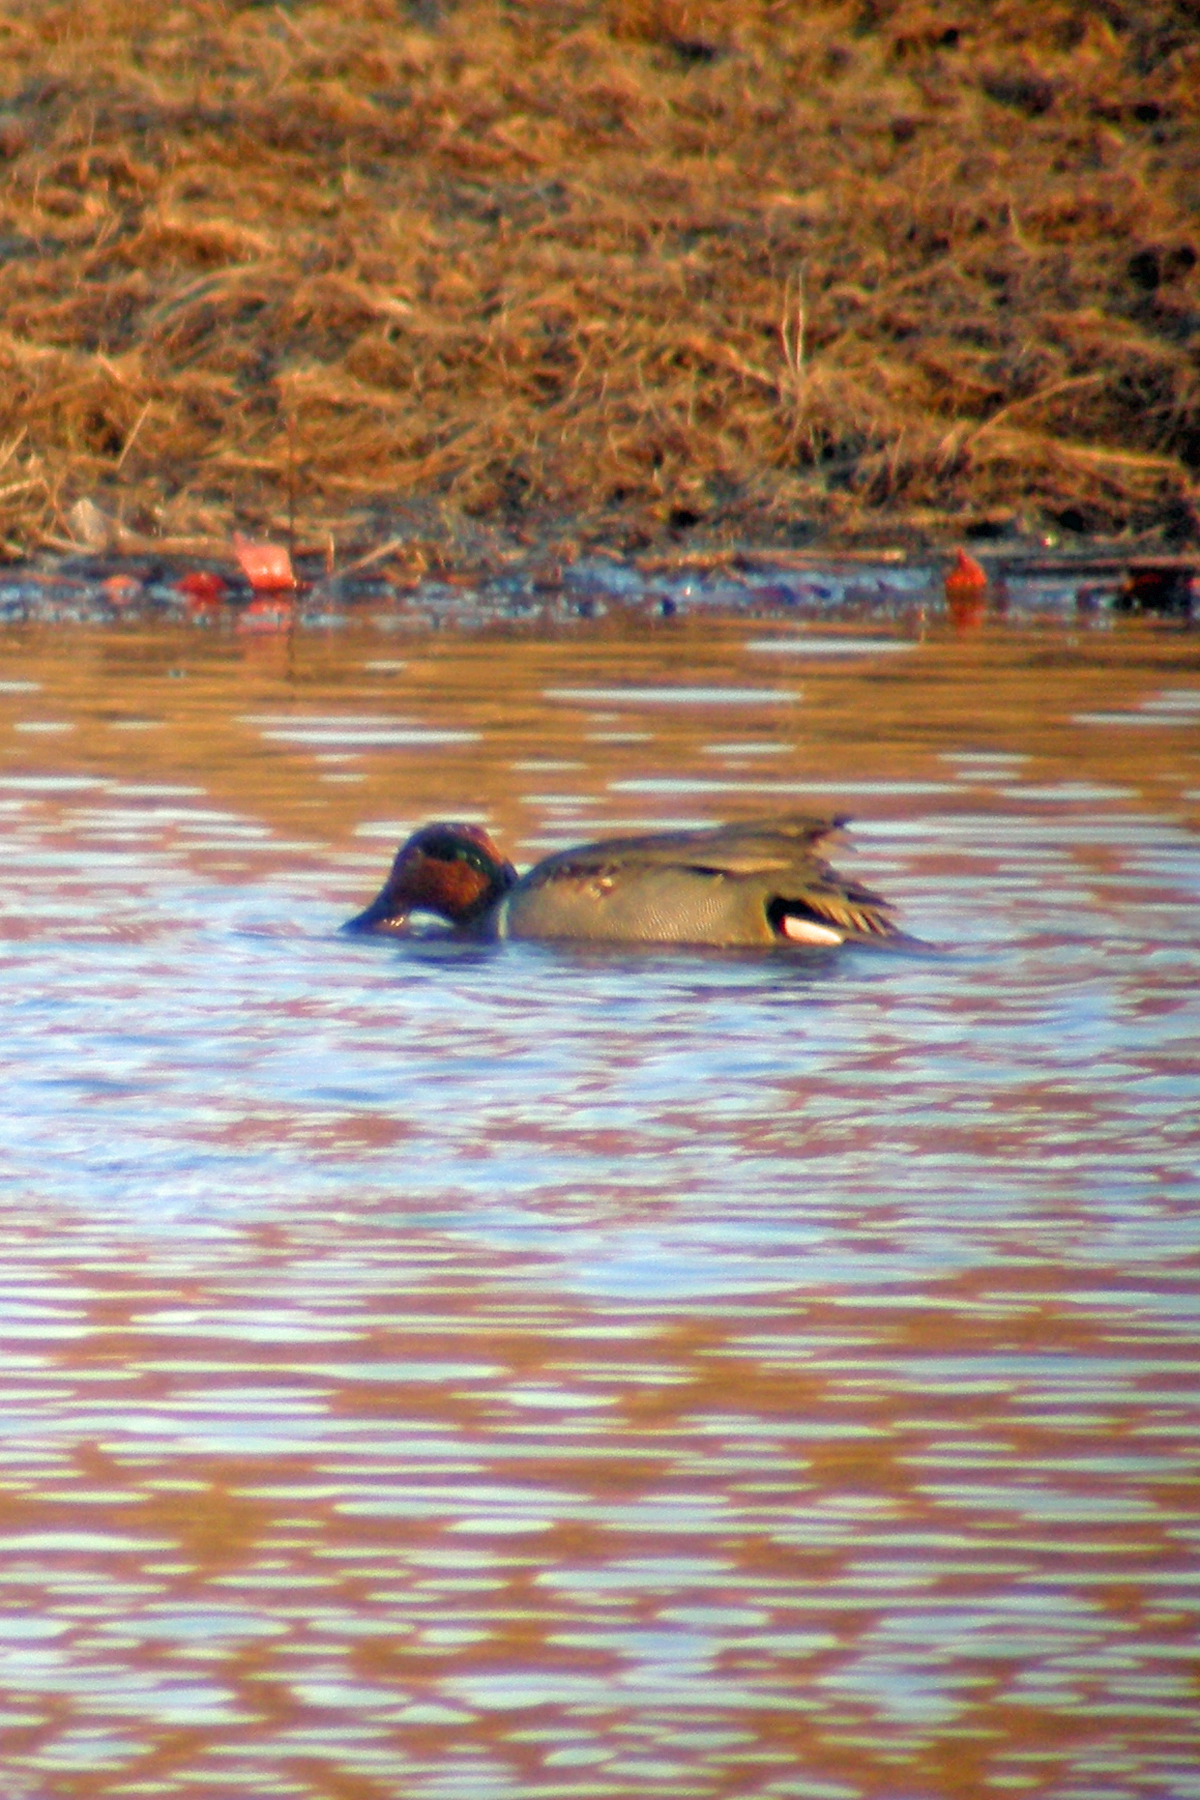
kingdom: Animalia
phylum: Chordata
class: Aves
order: Anseriformes
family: Anatidae
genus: Anas
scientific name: Anas crecca
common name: Eurasian teal
